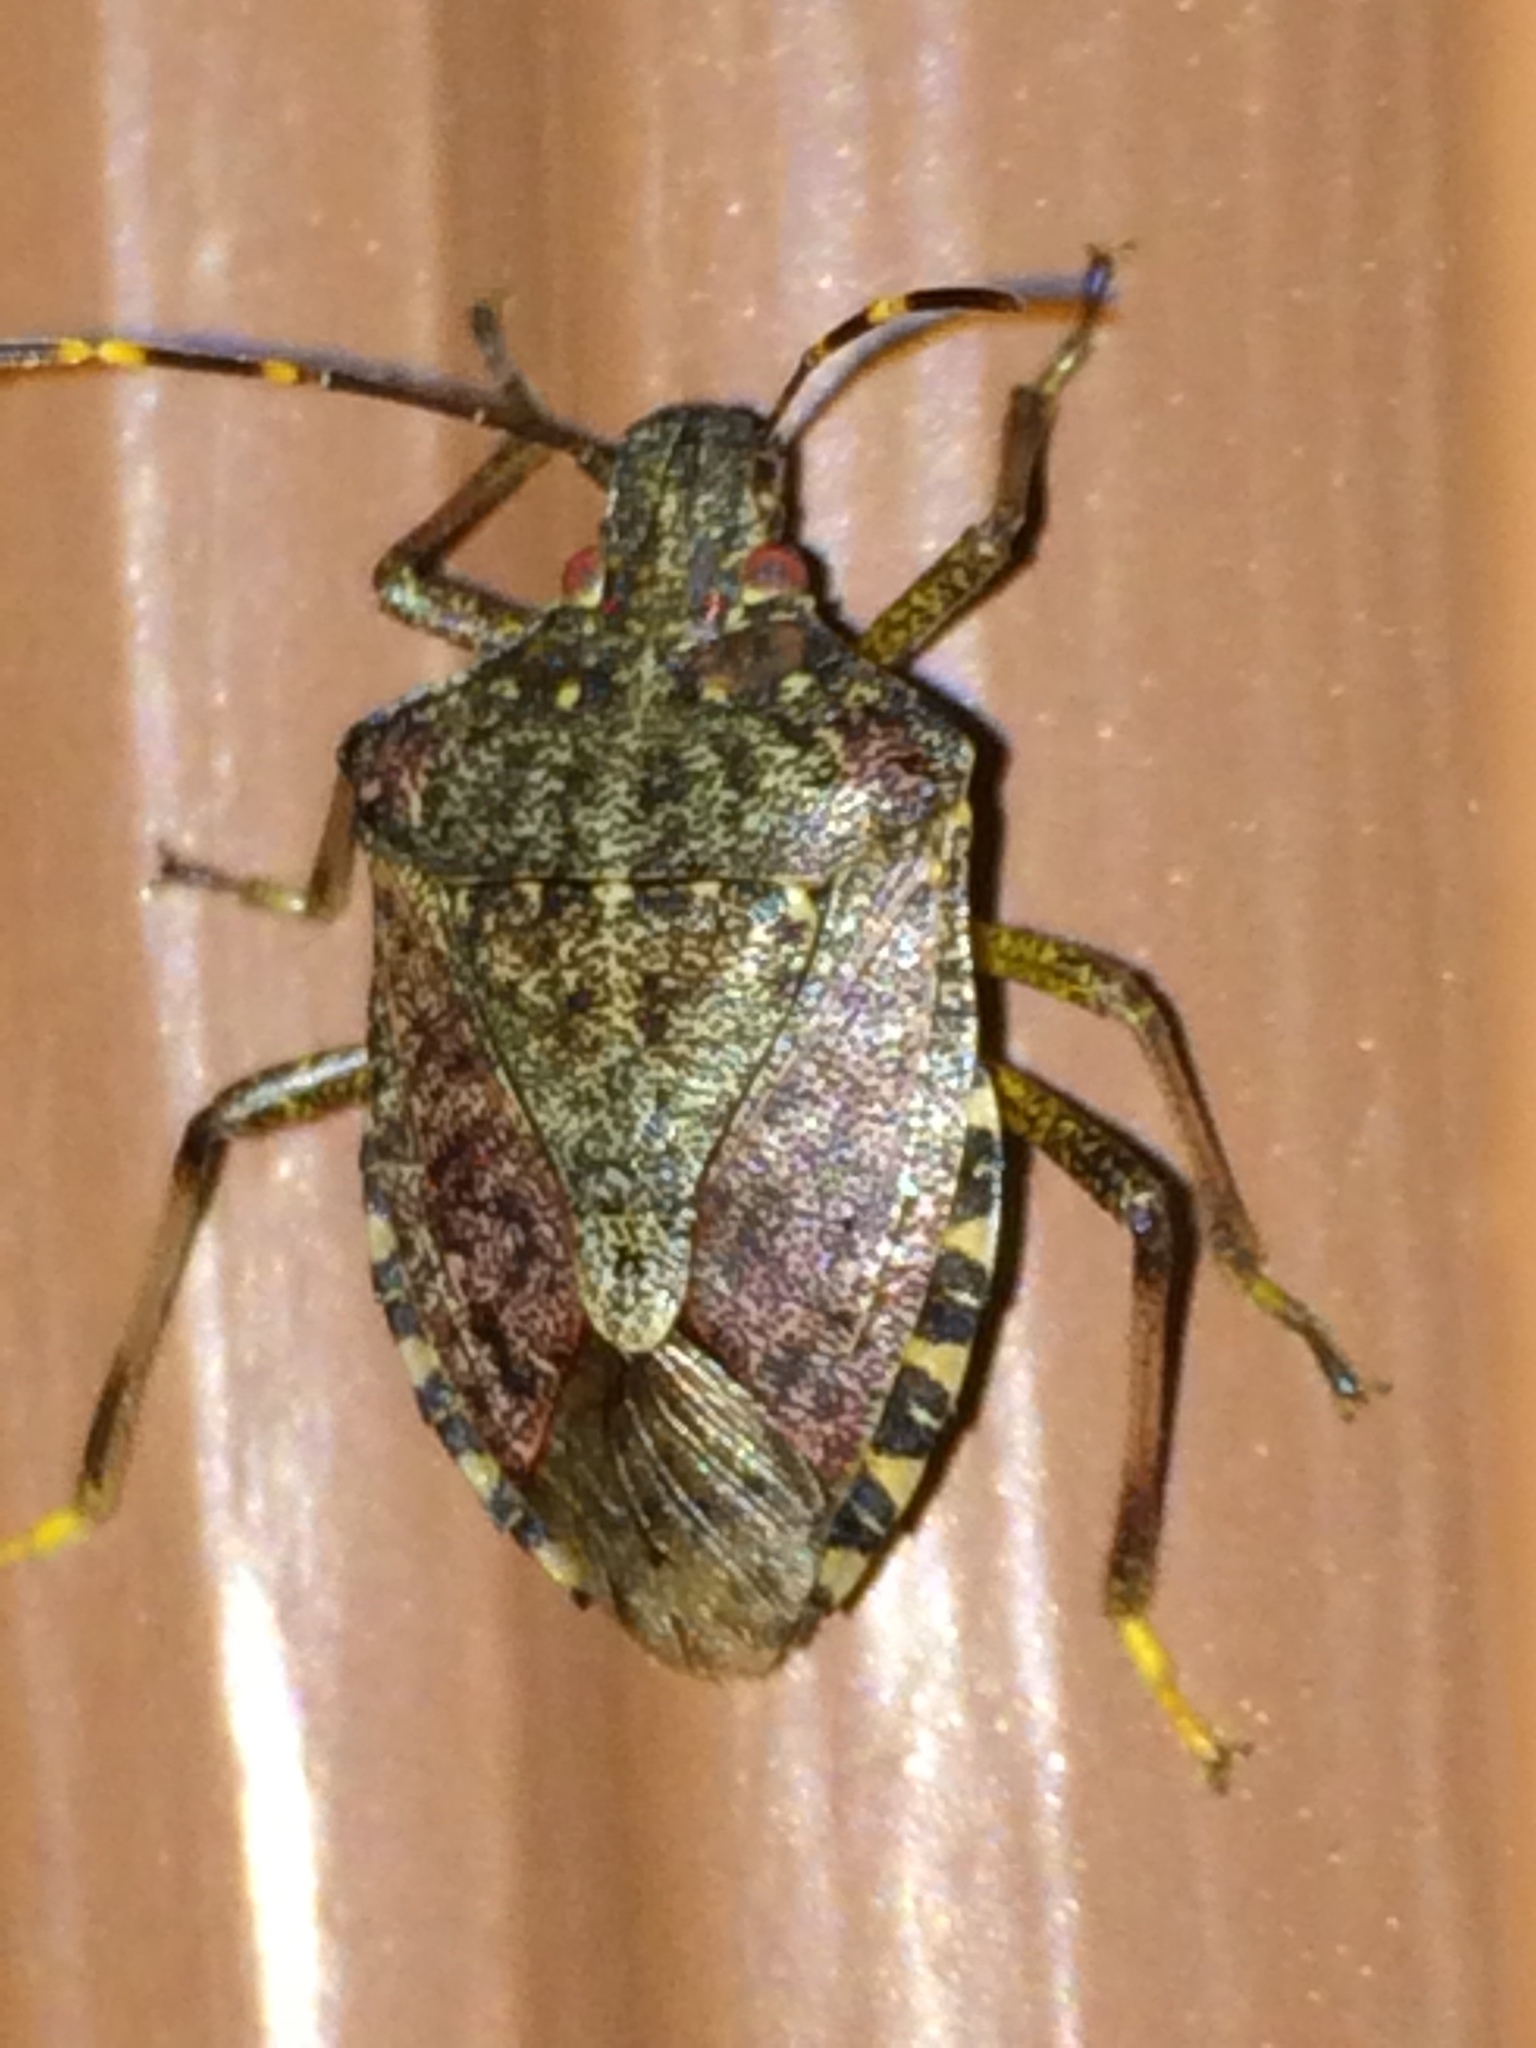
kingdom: Animalia
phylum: Arthropoda
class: Insecta
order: Hemiptera
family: Pentatomidae
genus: Halyomorpha
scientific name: Halyomorpha halys
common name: Brown marmorated stink bug
